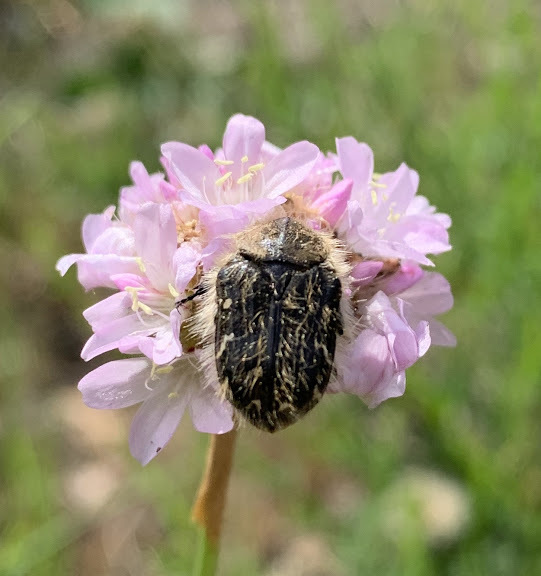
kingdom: Animalia
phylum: Arthropoda
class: Insecta
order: Coleoptera
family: Scarabaeidae
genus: Tropinota
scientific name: Tropinota squalida
